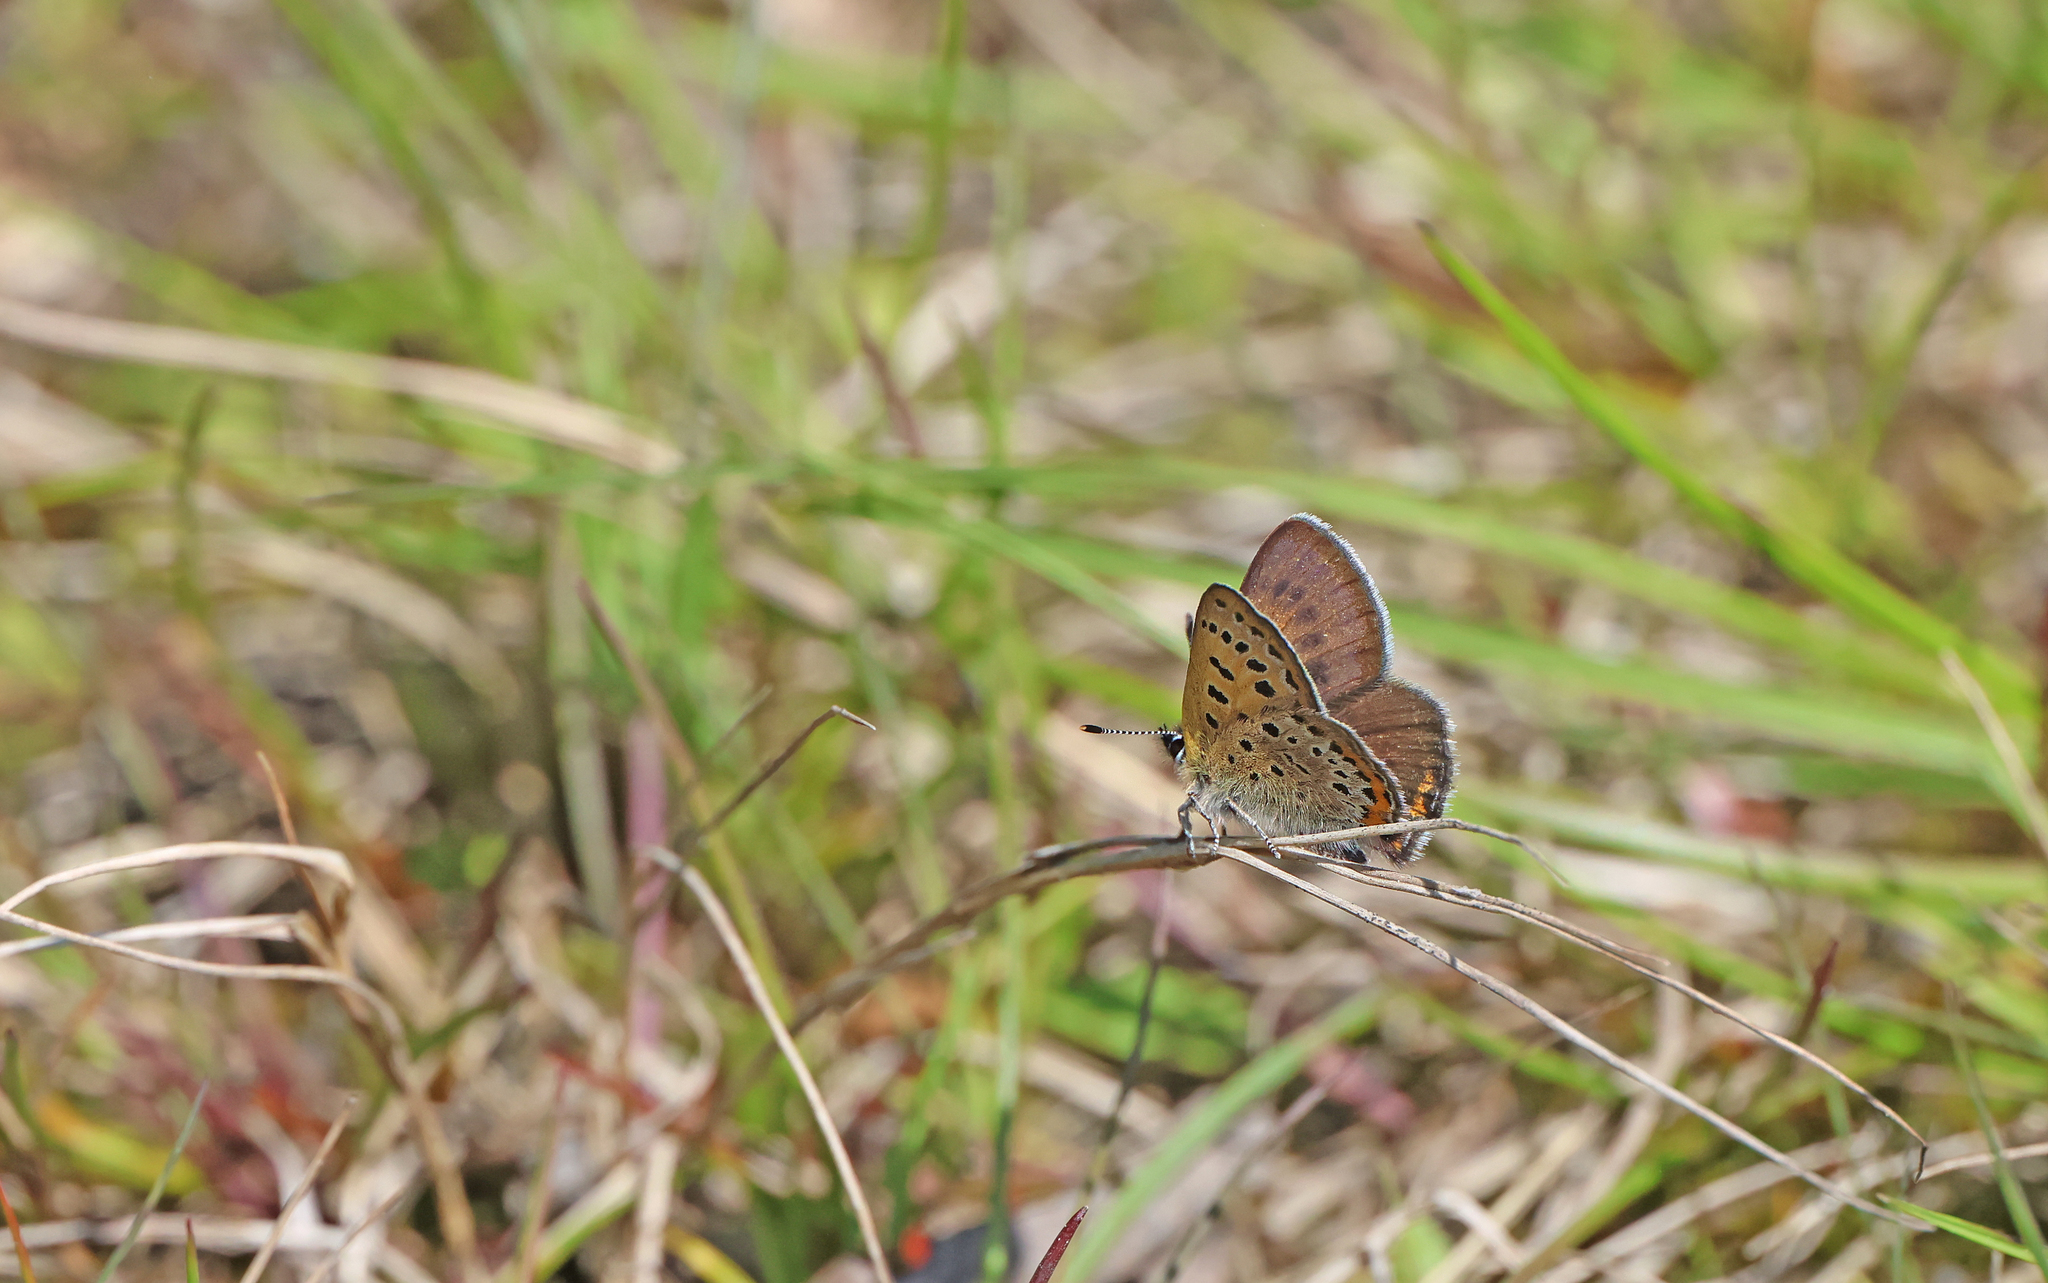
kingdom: Animalia
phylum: Arthropoda
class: Insecta
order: Lepidoptera
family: Lycaenidae
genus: Helleia
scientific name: Helleia helle
